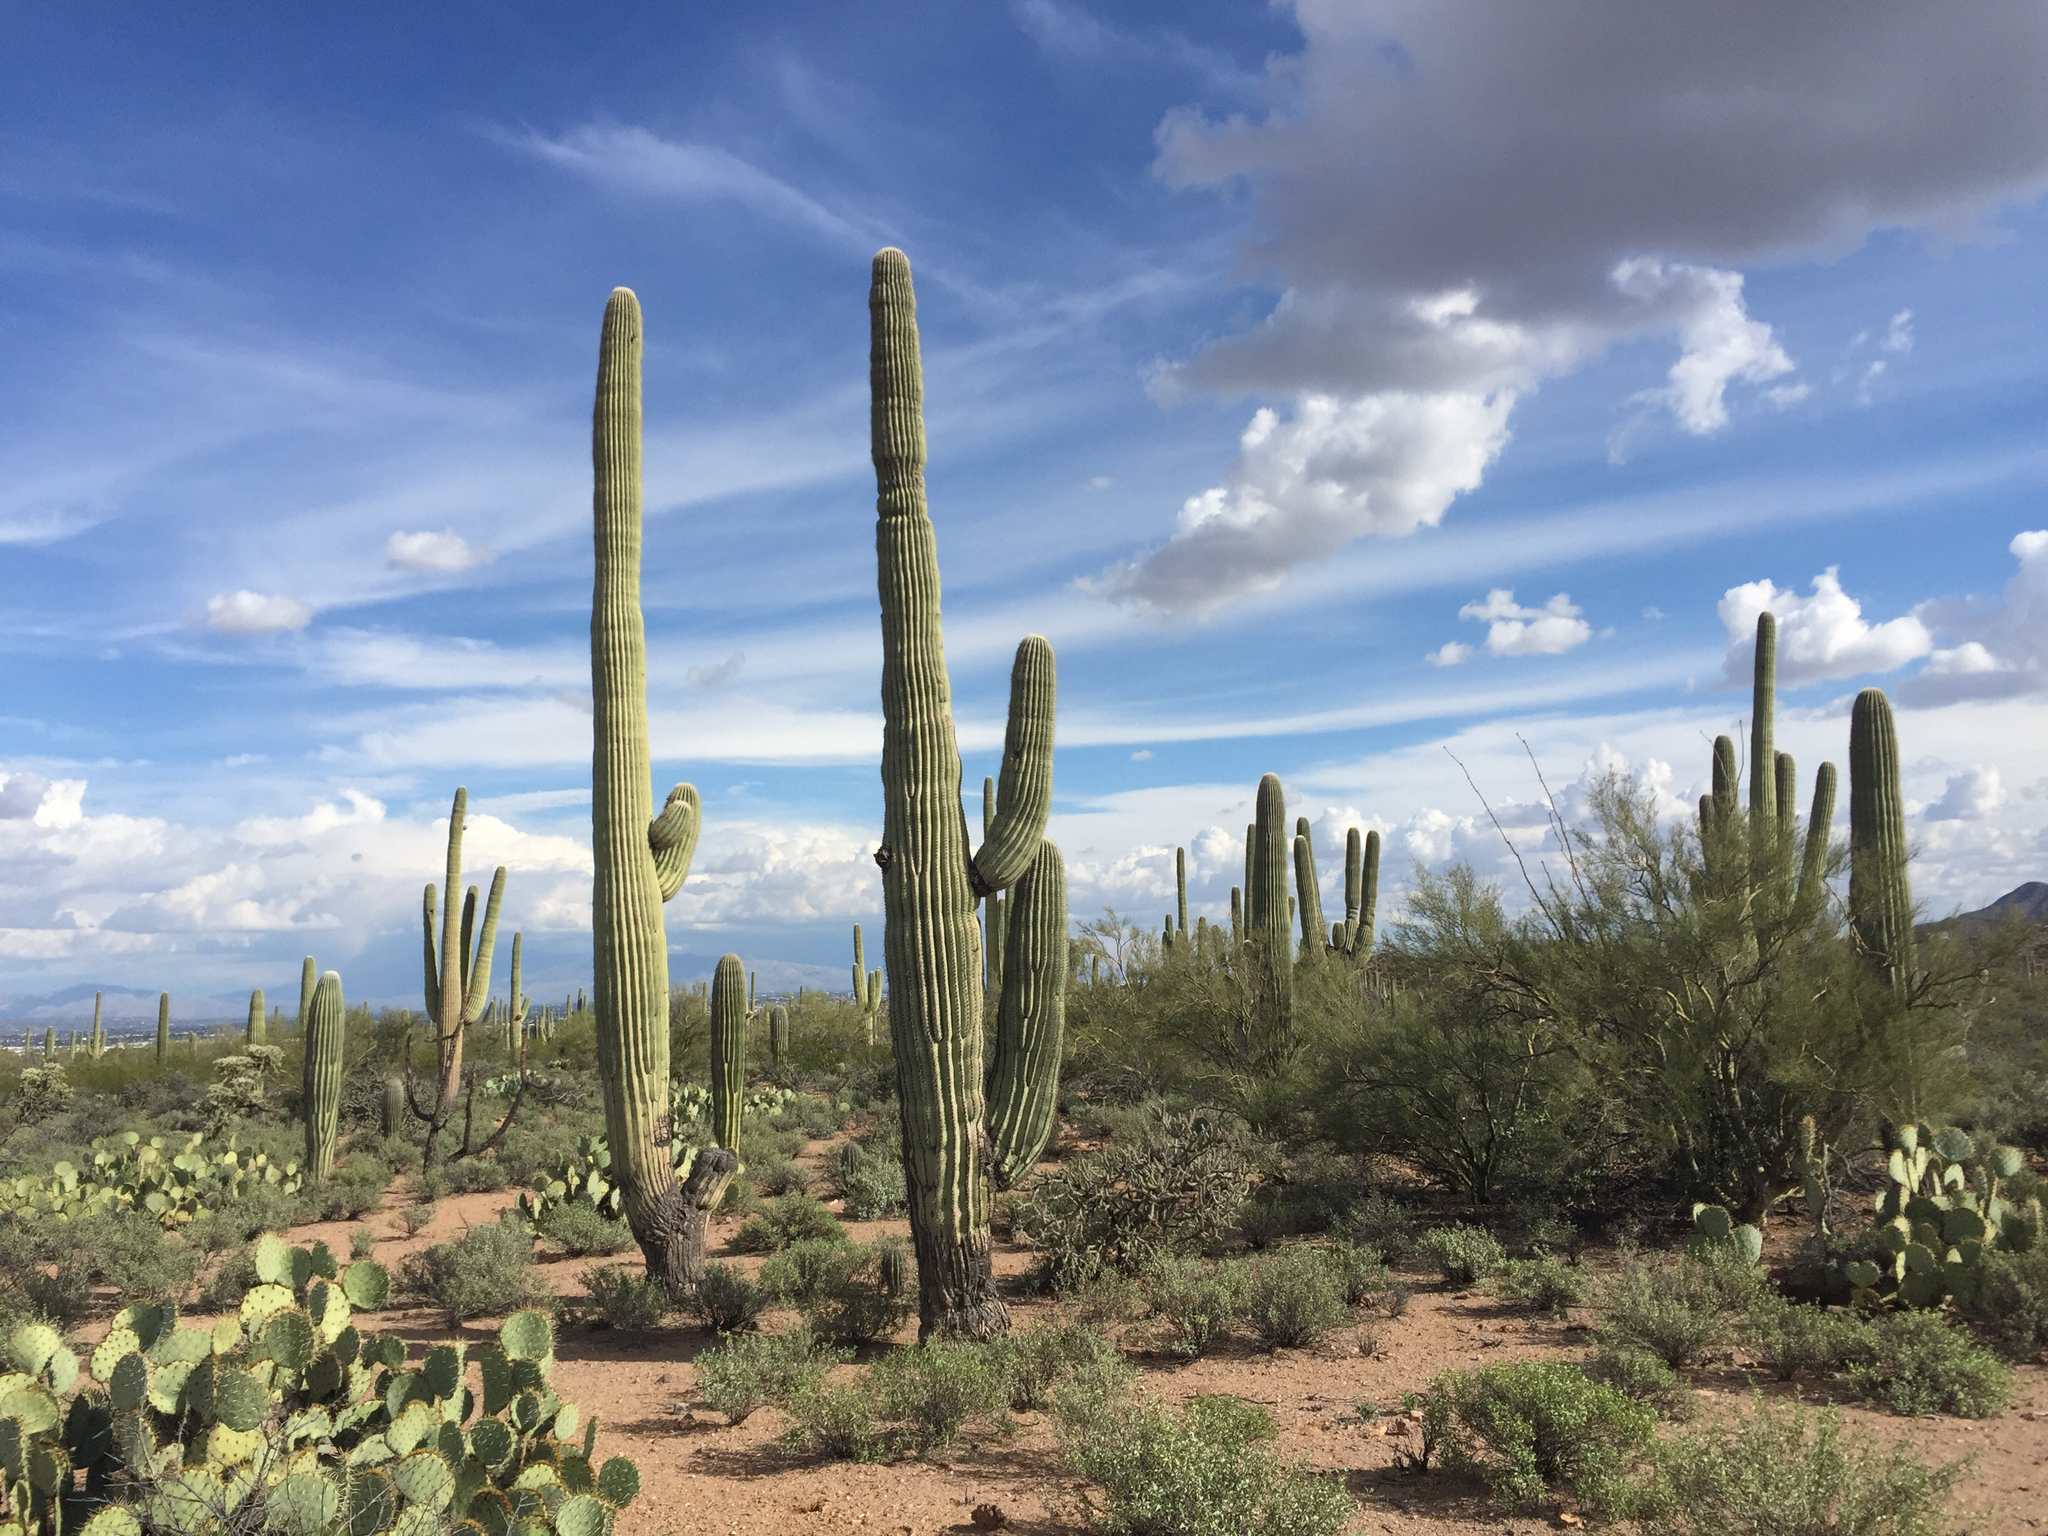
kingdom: Plantae
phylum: Tracheophyta
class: Magnoliopsida
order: Caryophyllales
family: Cactaceae
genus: Carnegiea
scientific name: Carnegiea gigantea
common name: Saguaro
